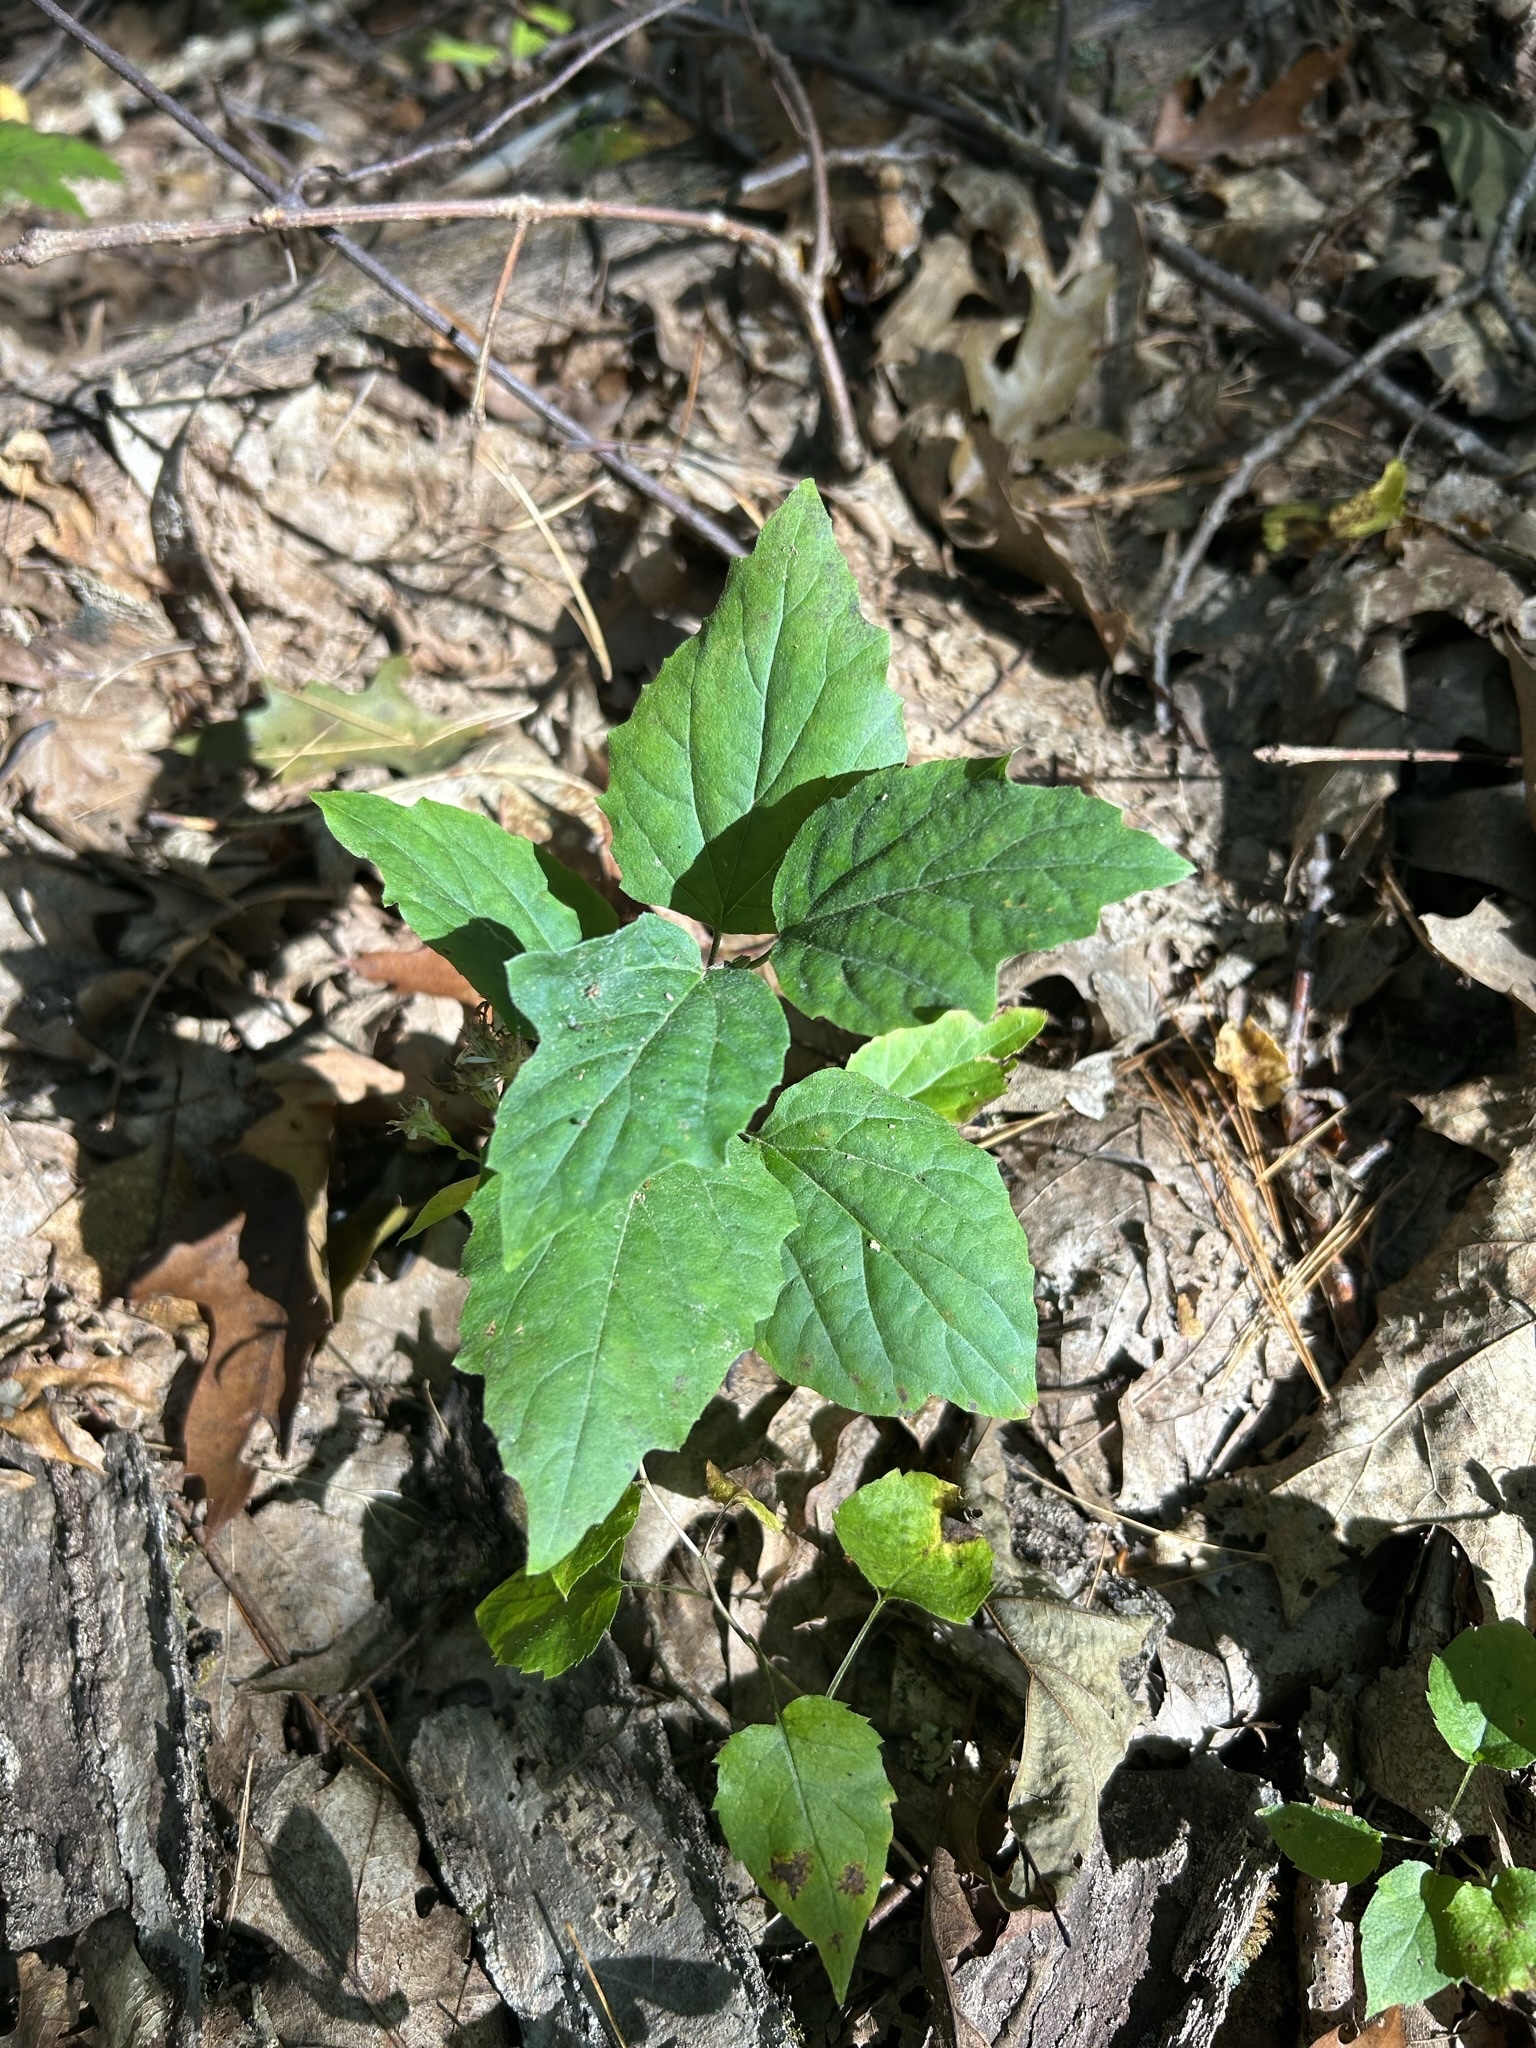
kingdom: Plantae
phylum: Tracheophyta
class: Magnoliopsida
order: Dipsacales
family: Viburnaceae
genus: Viburnum
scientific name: Viburnum acerifolium
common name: Dockmackie
